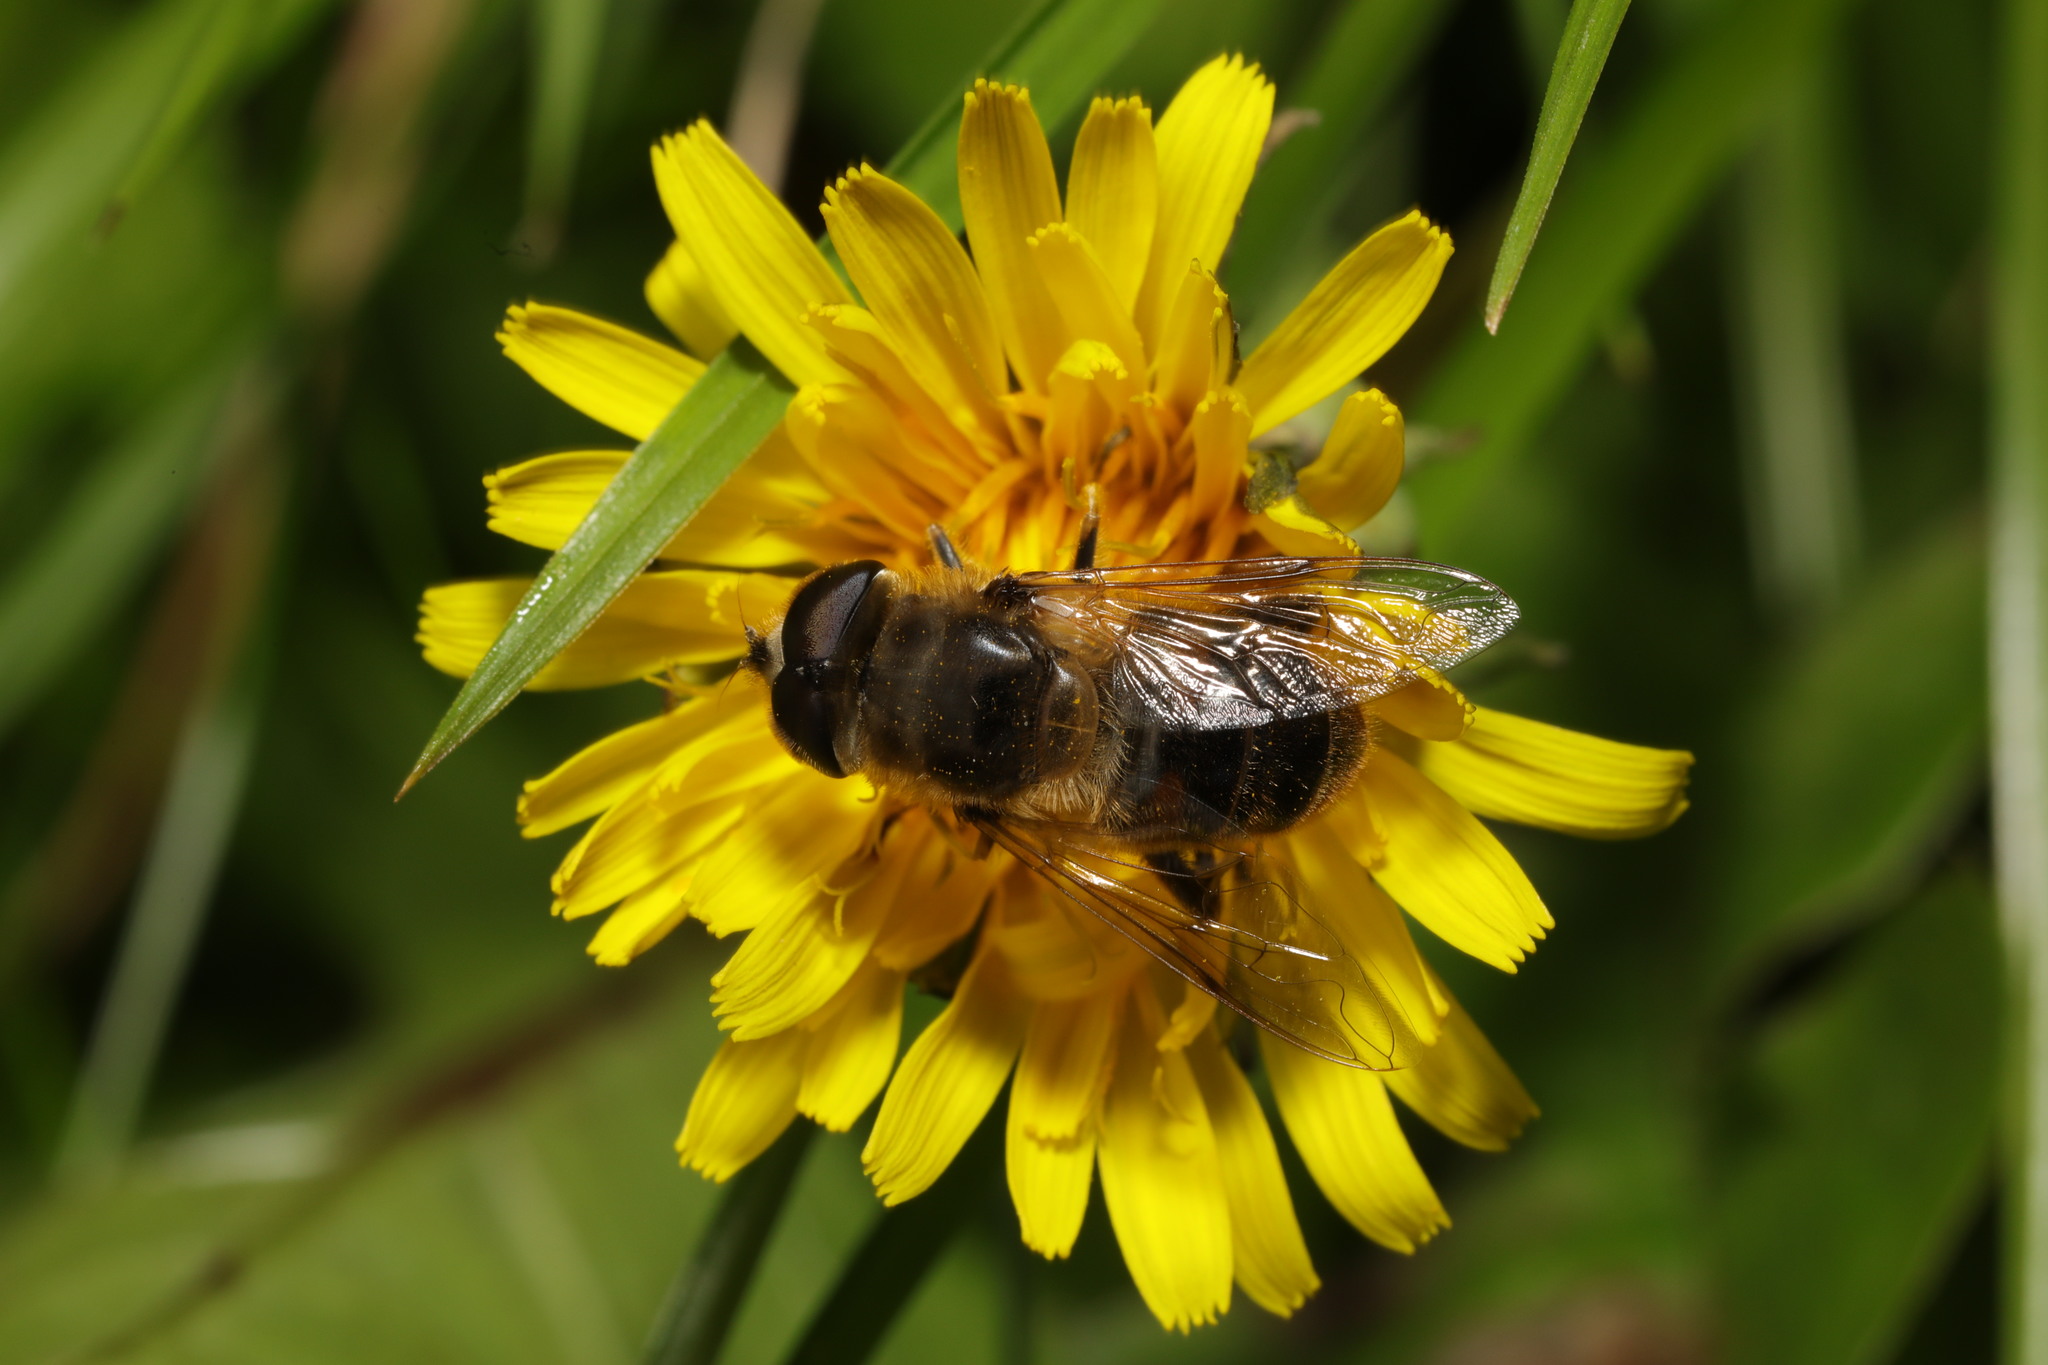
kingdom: Animalia
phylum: Arthropoda
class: Insecta
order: Diptera
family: Syrphidae
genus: Eristalis
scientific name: Eristalis tenax
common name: Drone fly
